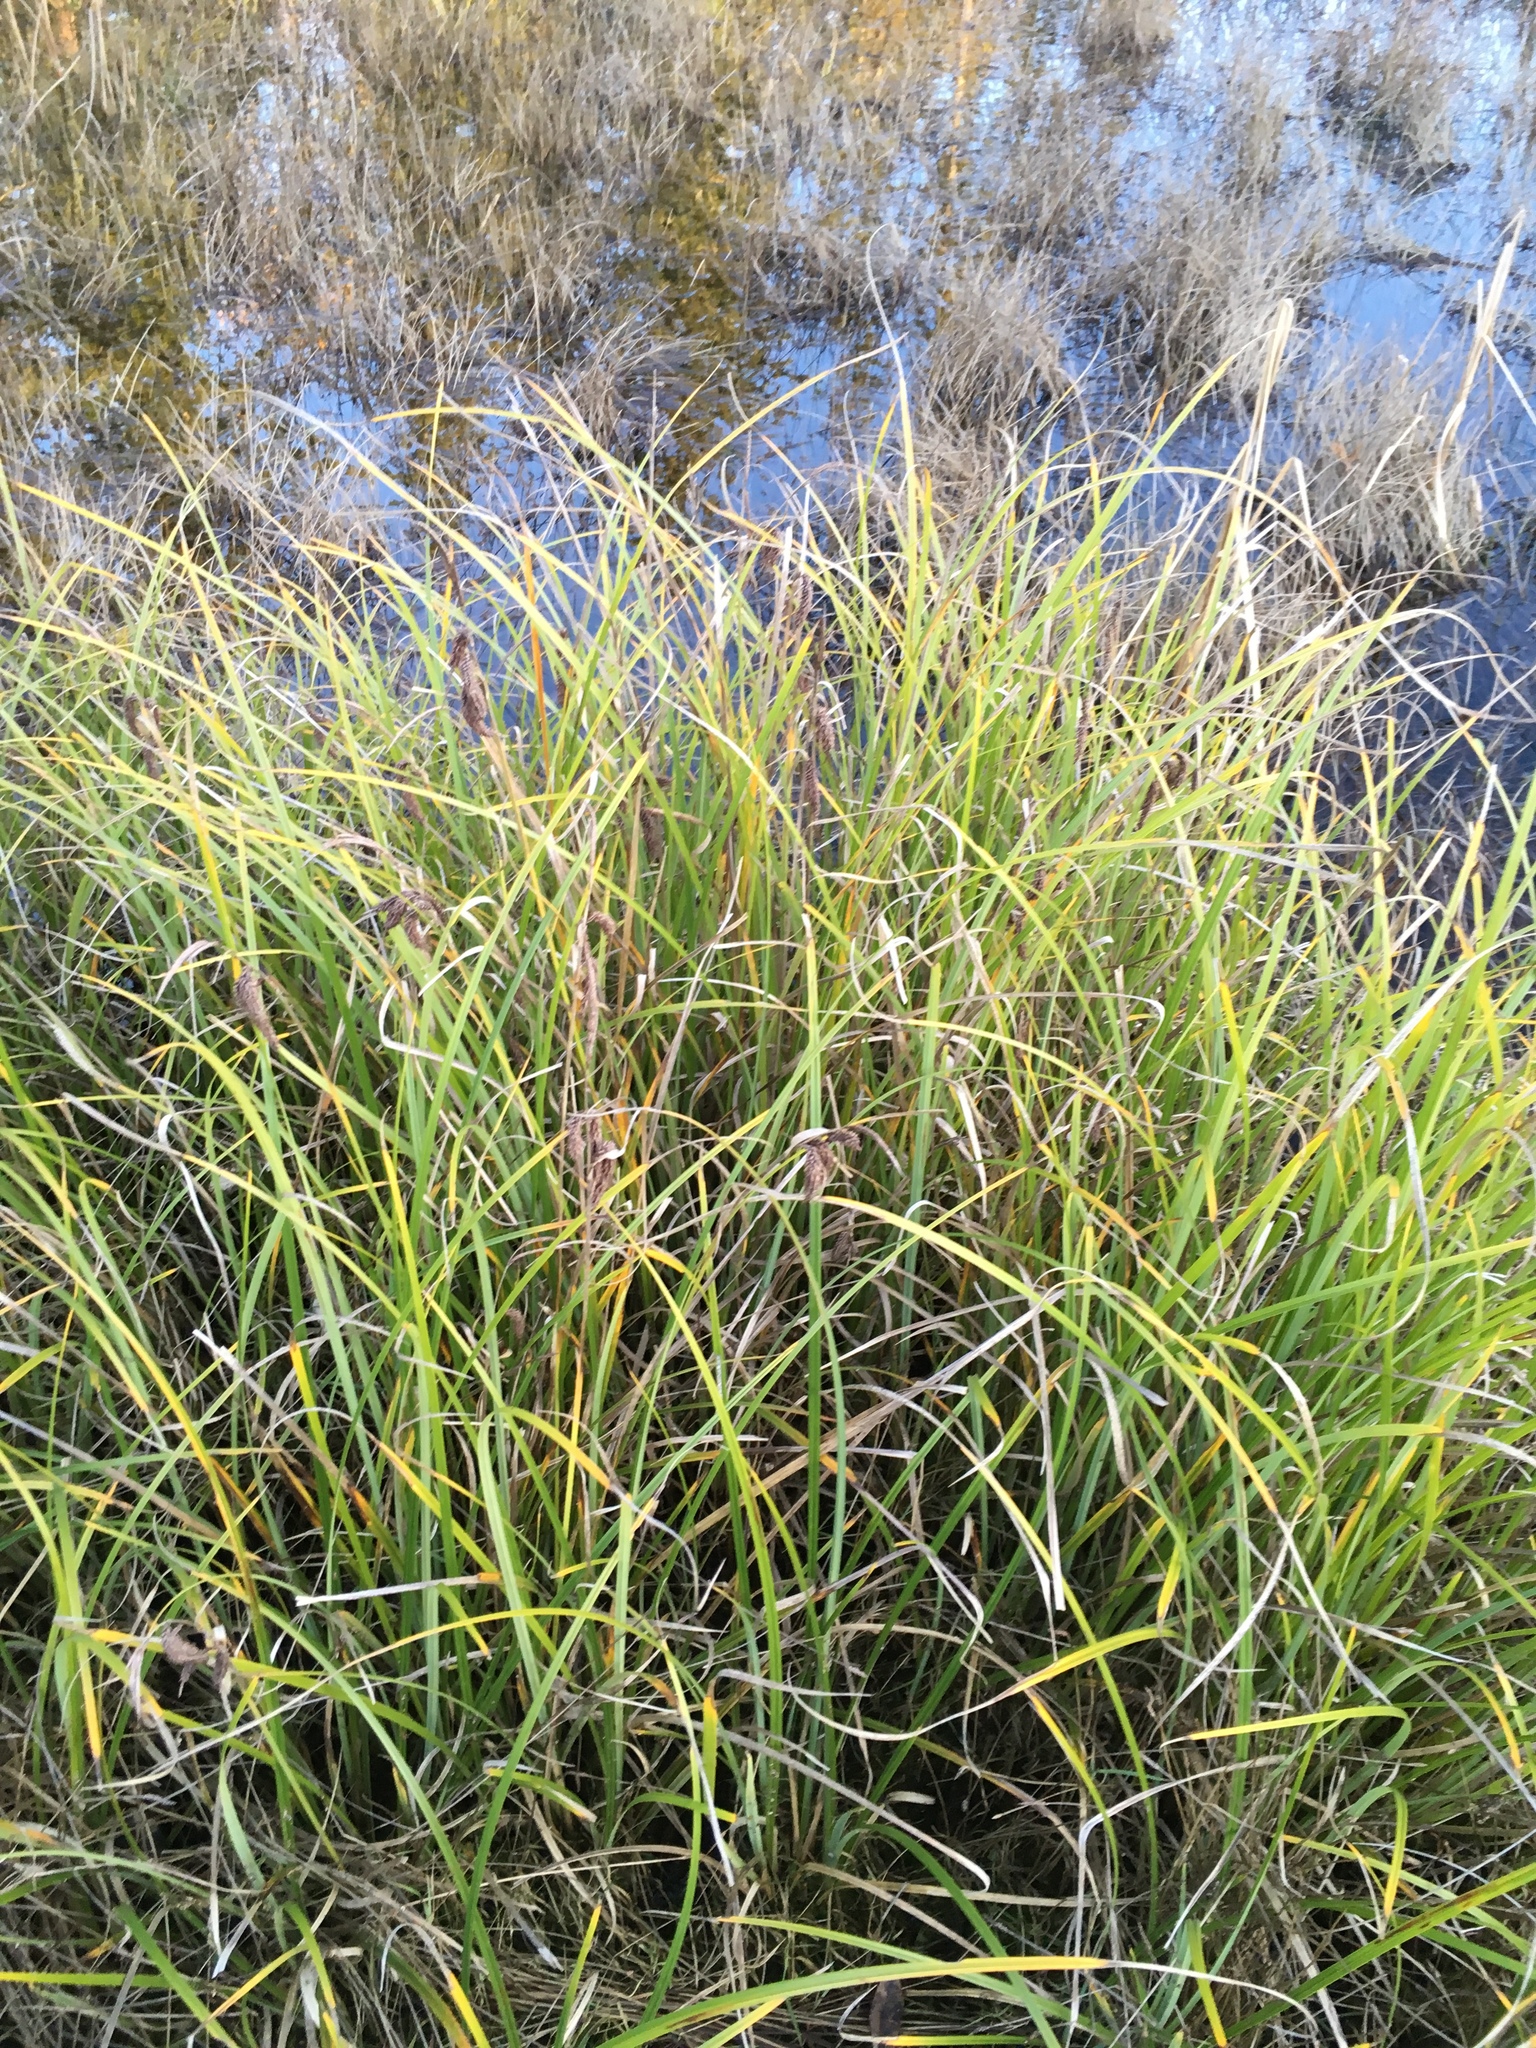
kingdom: Plantae
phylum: Tracheophyta
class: Liliopsida
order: Poales
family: Cyperaceae
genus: Carex
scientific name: Carex obnupta
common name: Slough sedge
